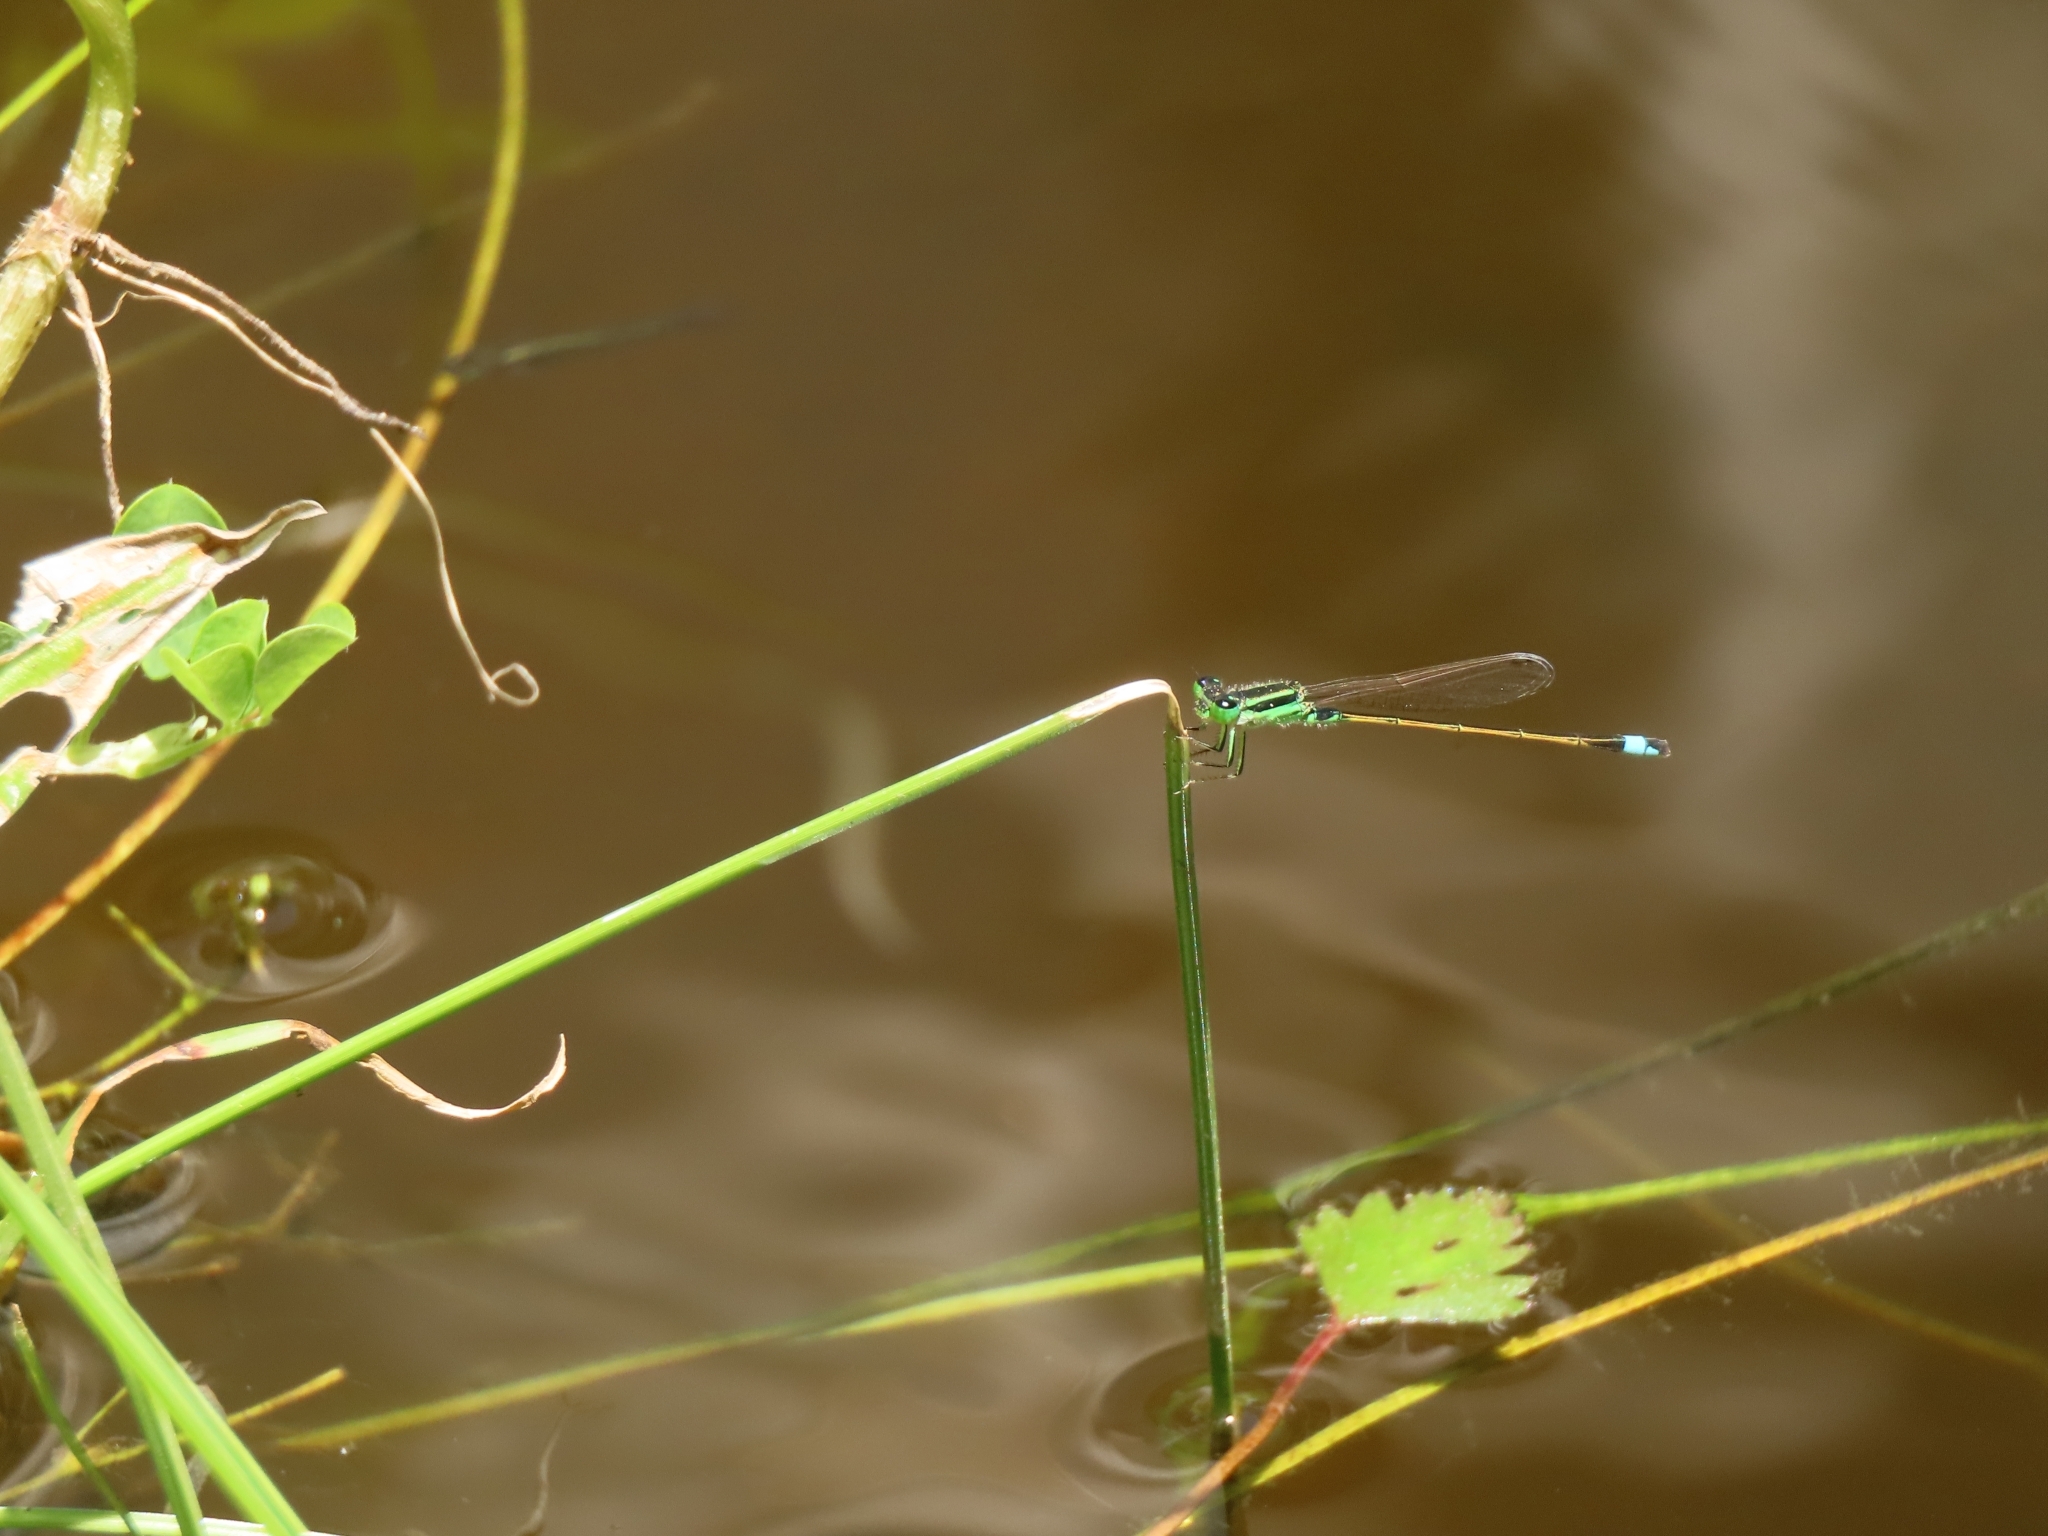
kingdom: Animalia
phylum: Arthropoda
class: Insecta
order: Odonata
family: Coenagrionidae
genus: Ischnura
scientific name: Ischnura senegalensis
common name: Tropical bluetail
